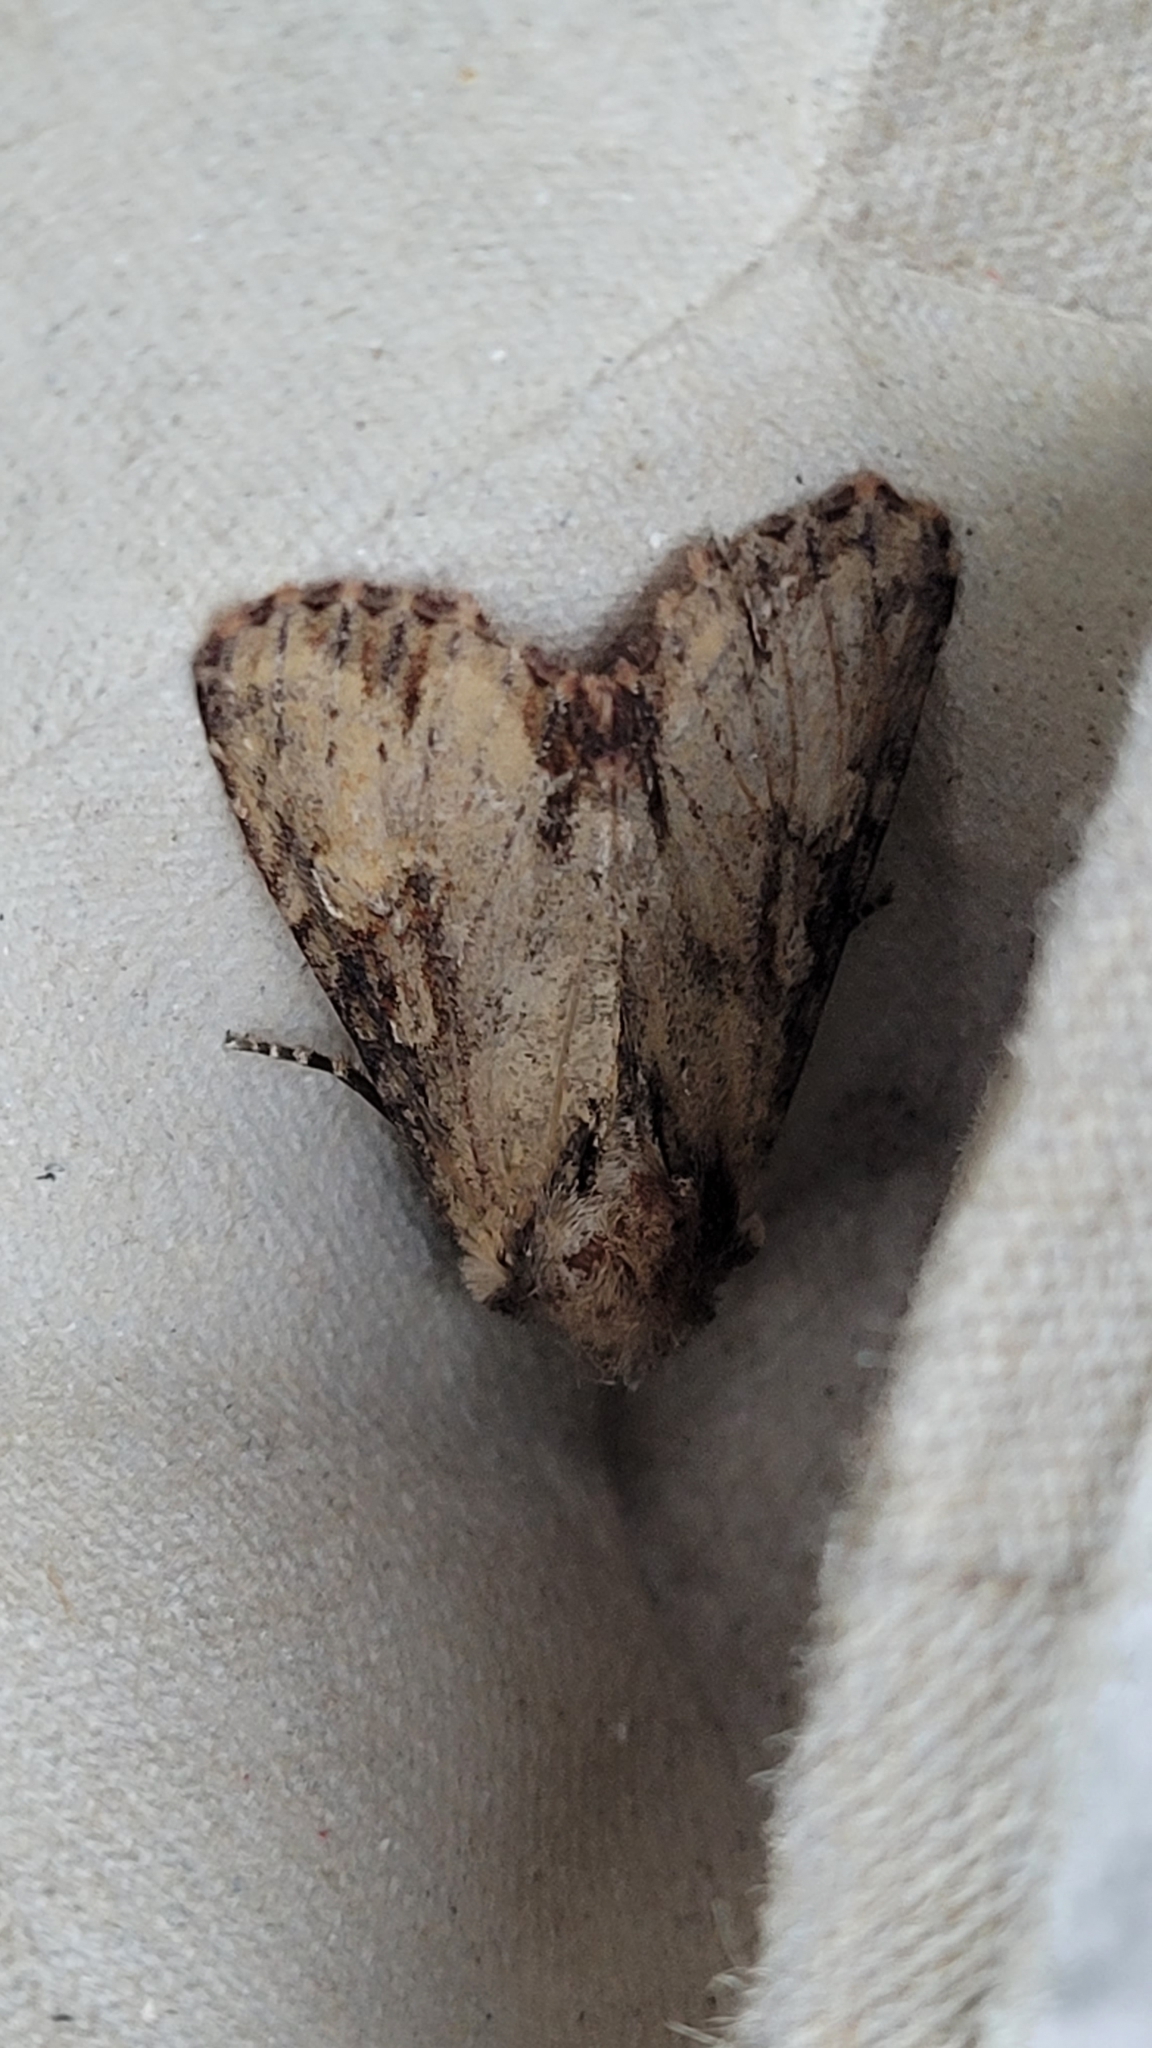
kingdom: Animalia
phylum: Arthropoda
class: Insecta
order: Lepidoptera
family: Noctuidae
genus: Apamea
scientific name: Apamea crenata
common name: Clouded-bordered brindle
